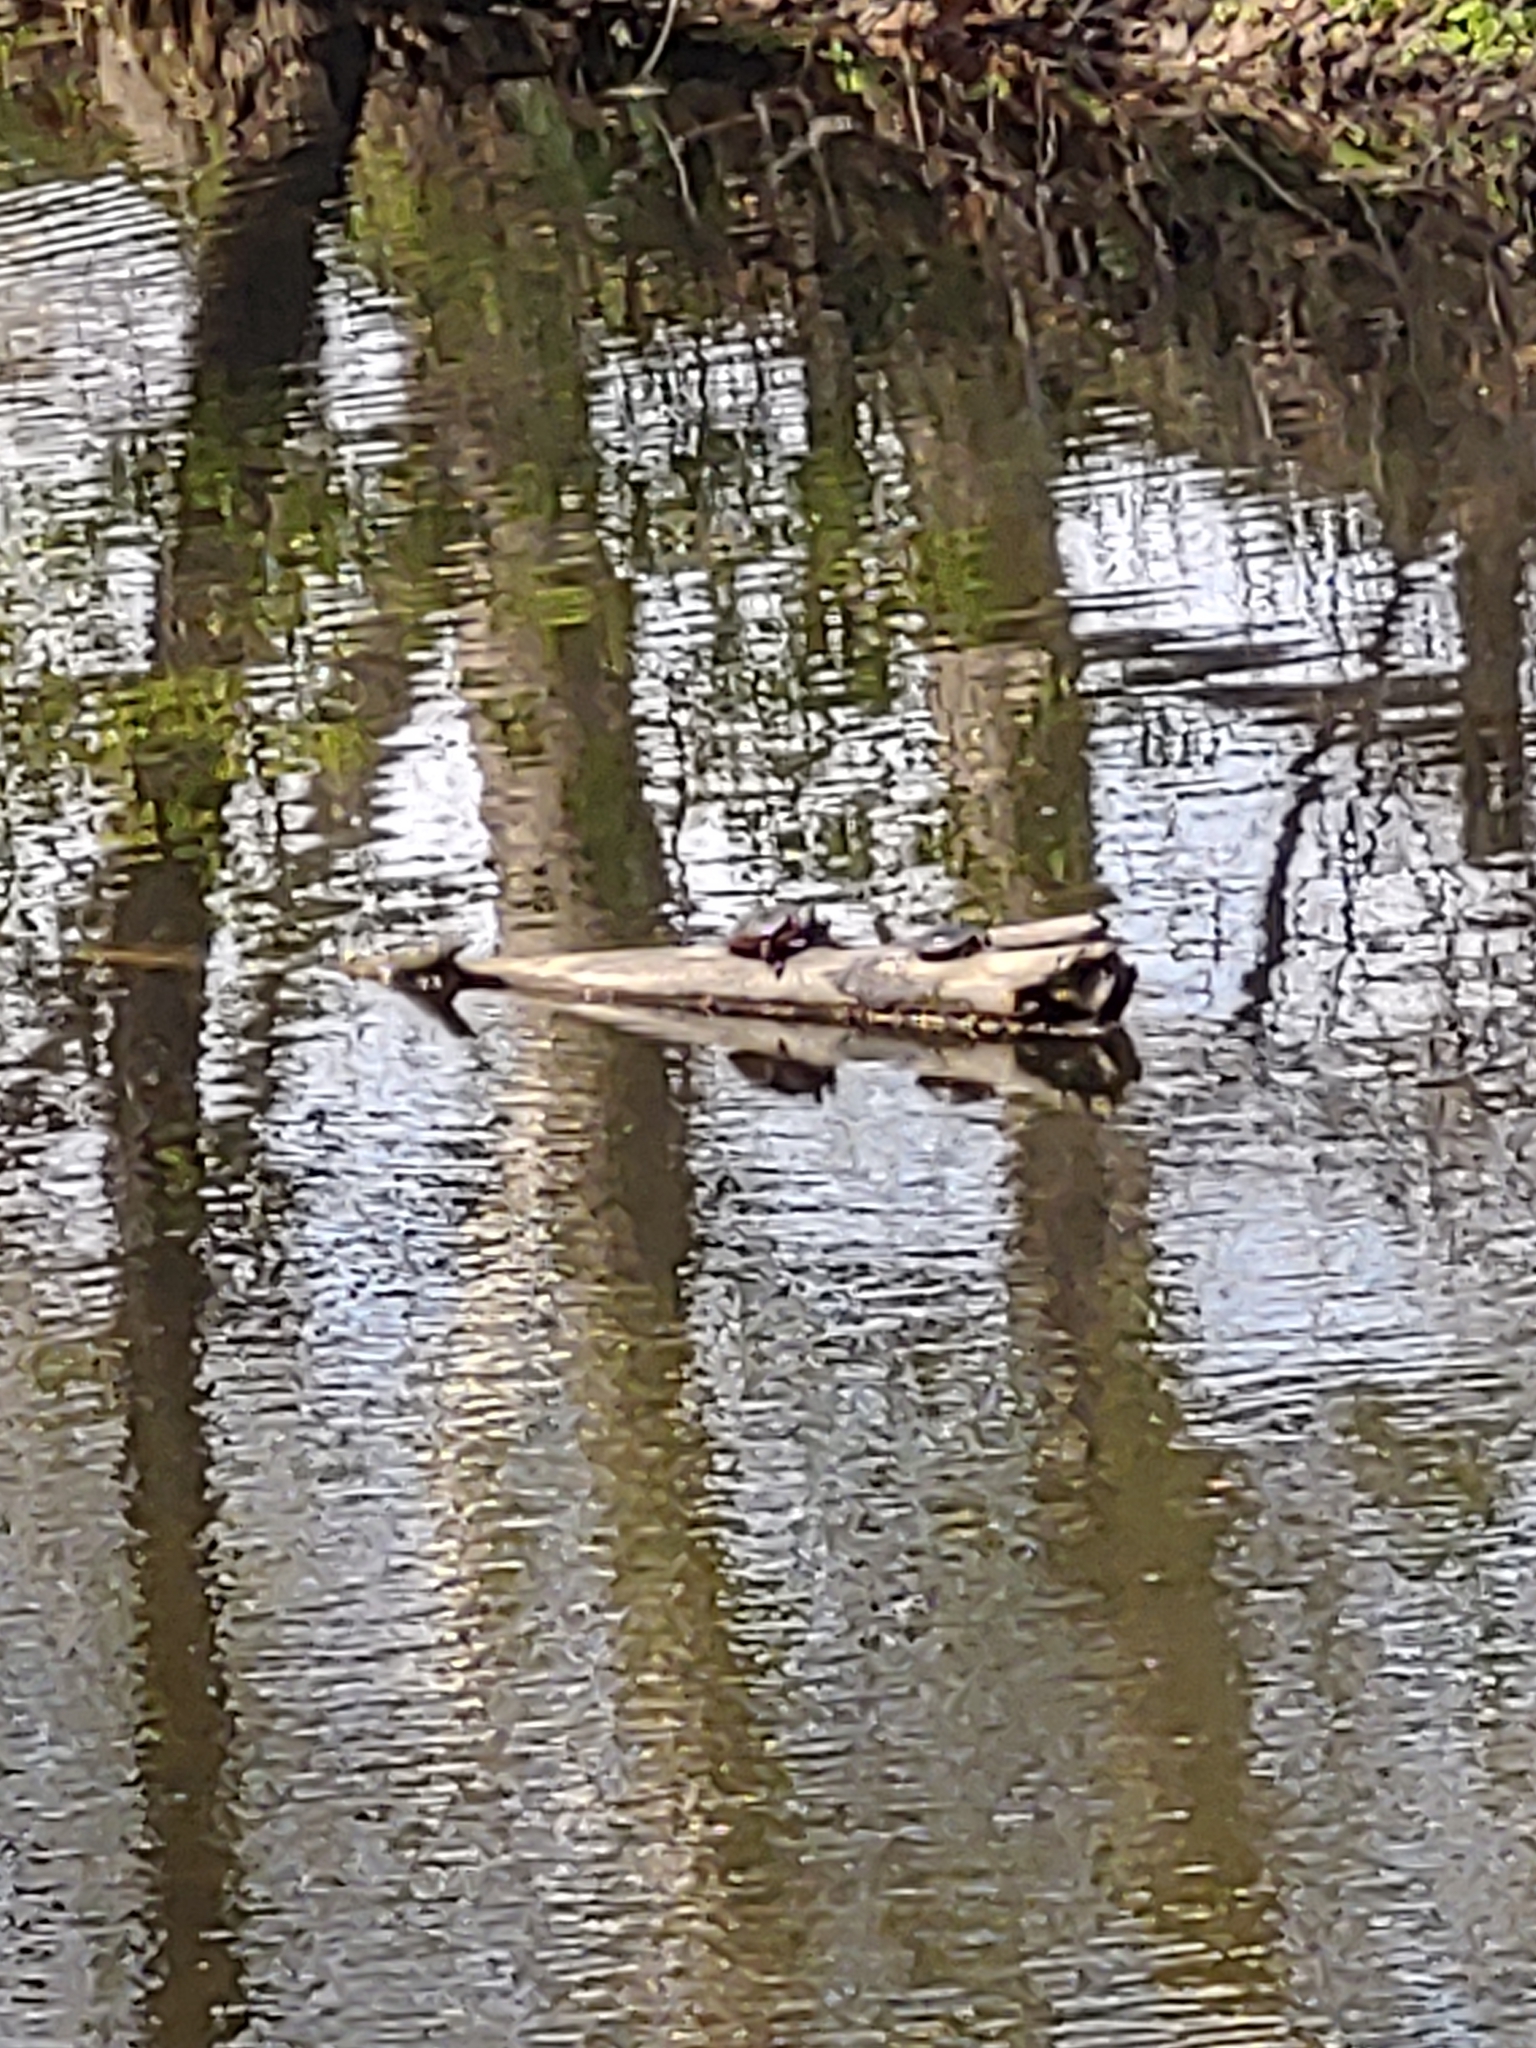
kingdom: Animalia
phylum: Chordata
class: Testudines
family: Emydidae
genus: Chrysemys
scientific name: Chrysemys picta
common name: Painted turtle
